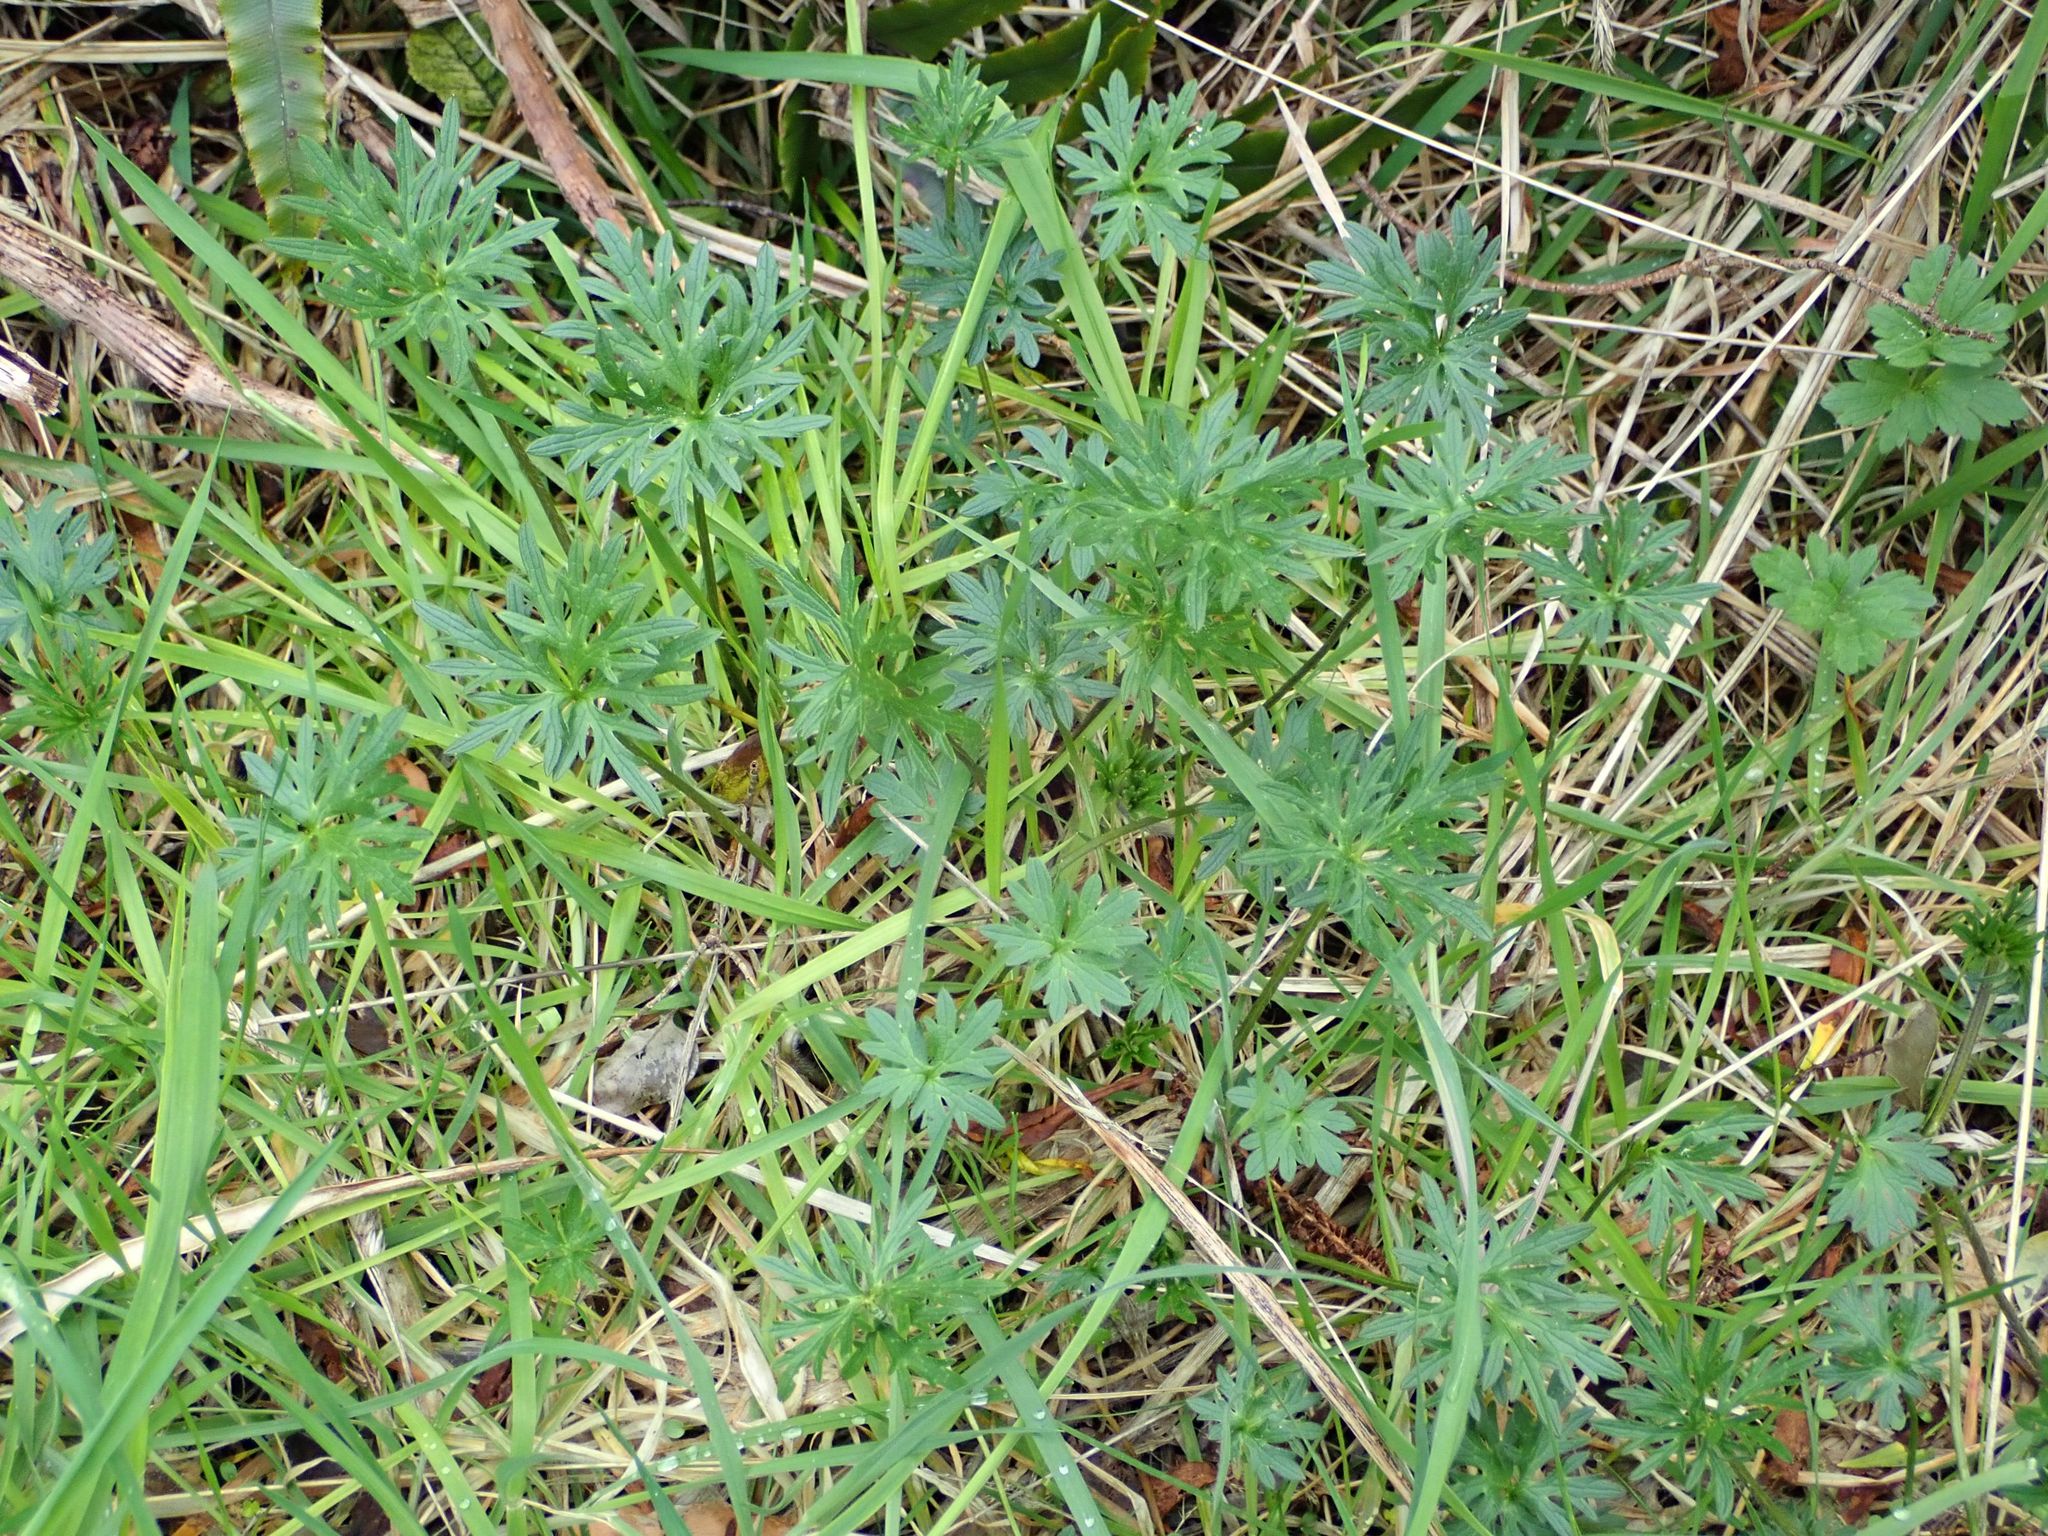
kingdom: Plantae
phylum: Tracheophyta
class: Magnoliopsida
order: Ranunculales
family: Ranunculaceae
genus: Ranunculus
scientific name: Ranunculus acris
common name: Meadow buttercup
